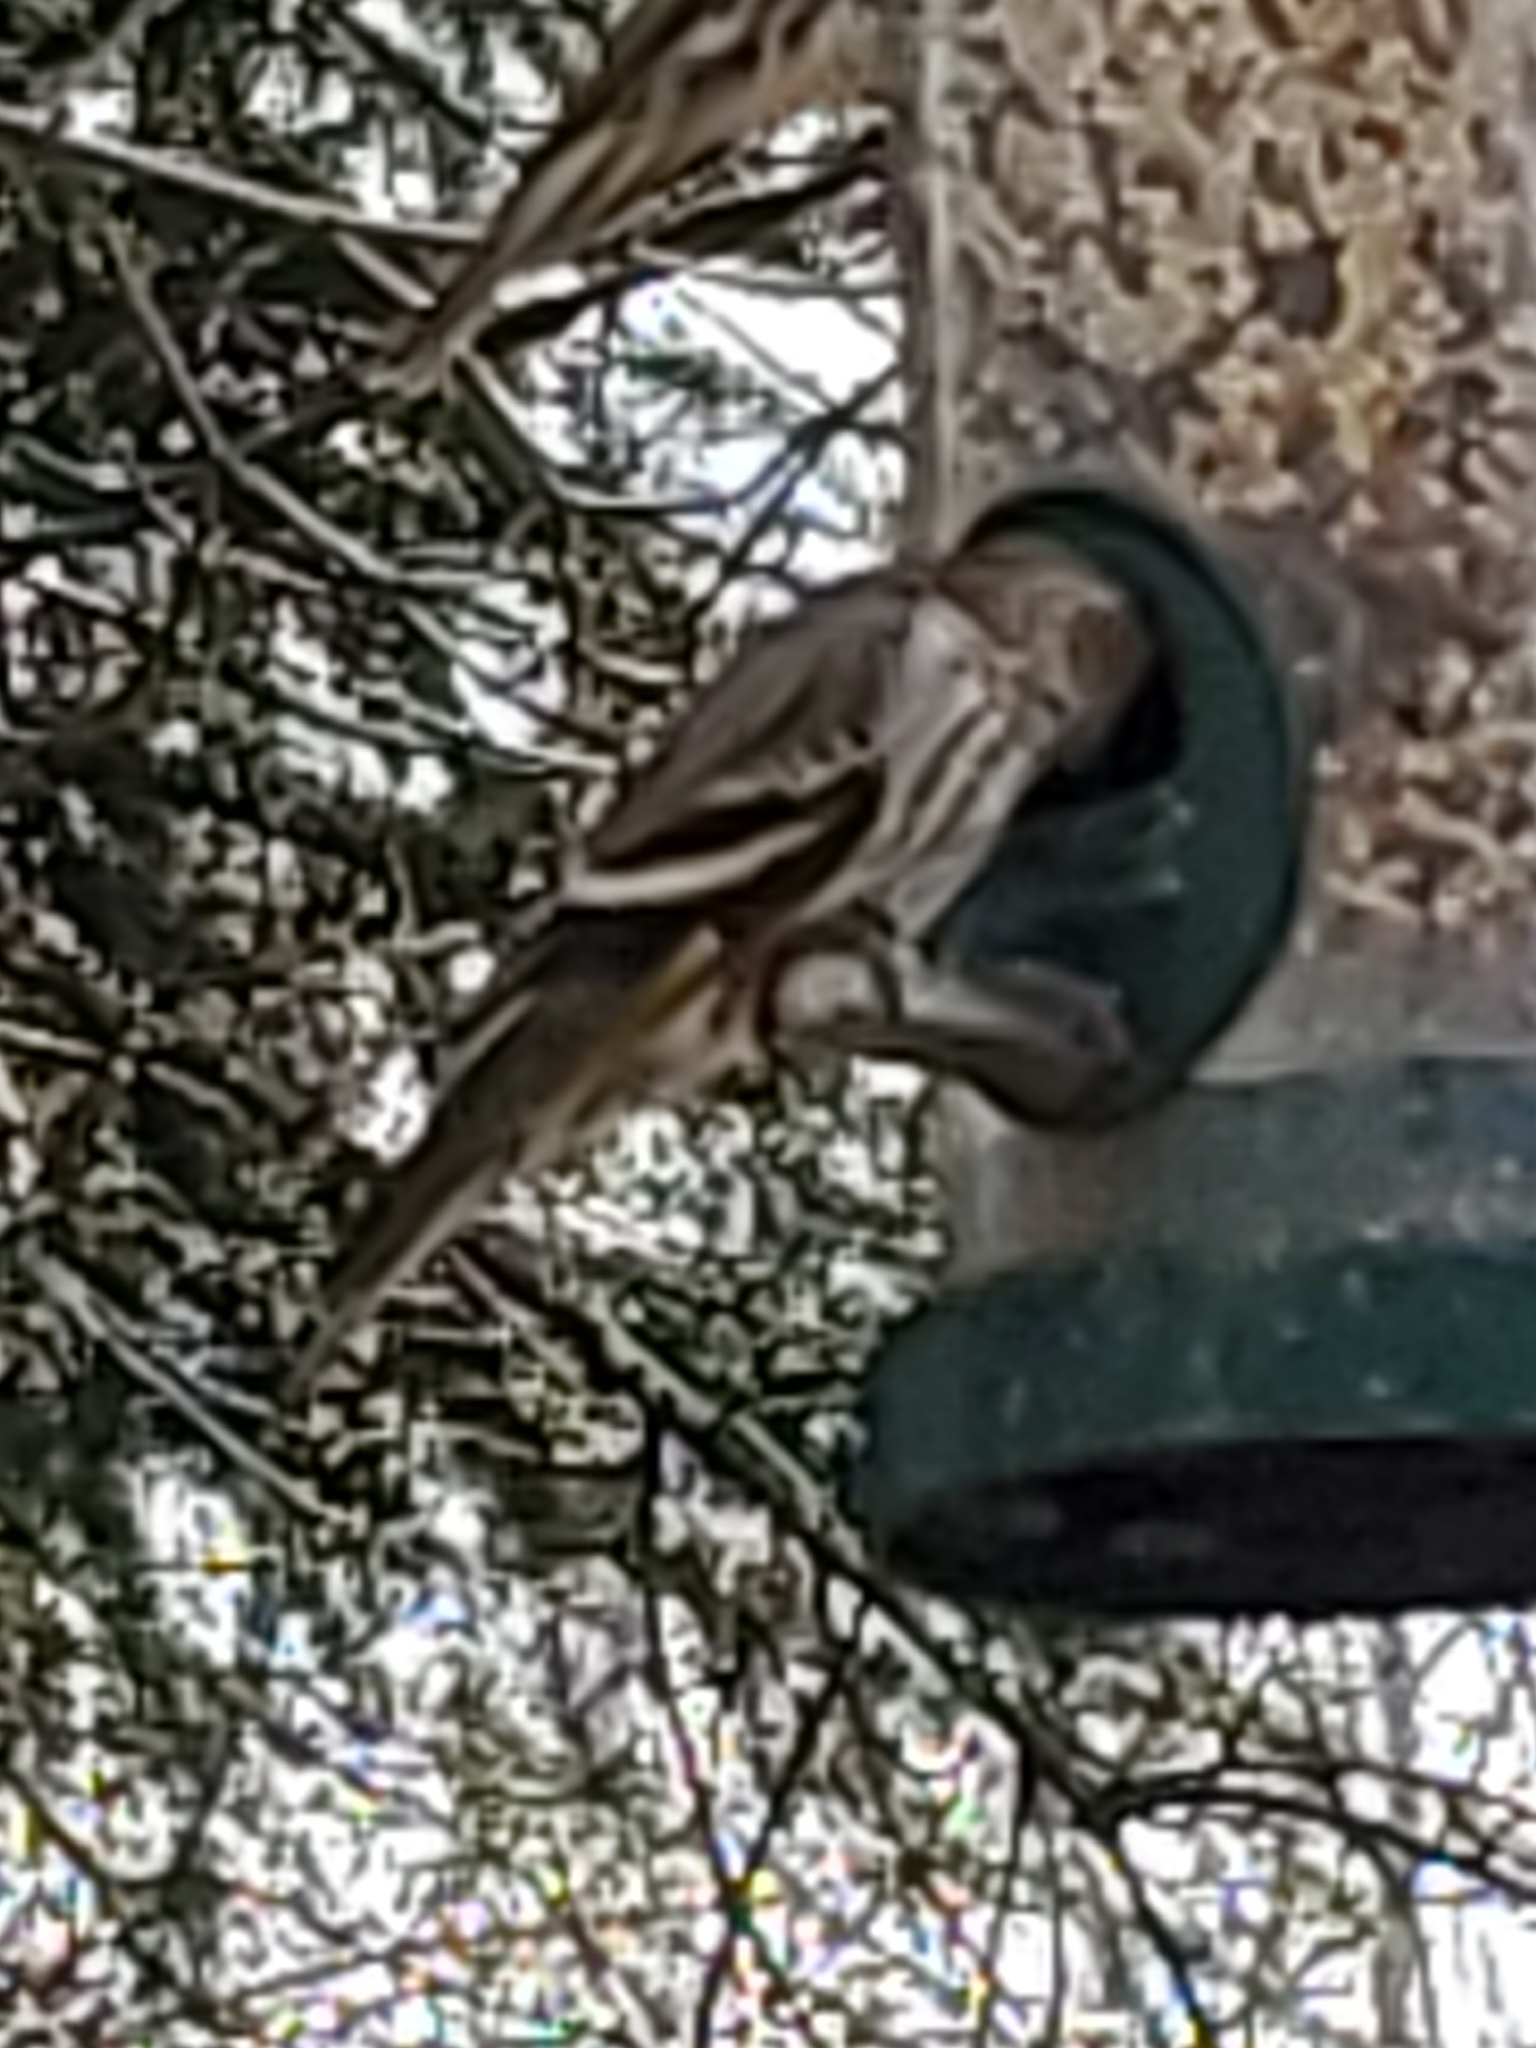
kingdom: Animalia
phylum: Chordata
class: Aves
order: Passeriformes
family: Fringillidae
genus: Spinus
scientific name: Spinus pinus
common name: Pine siskin
